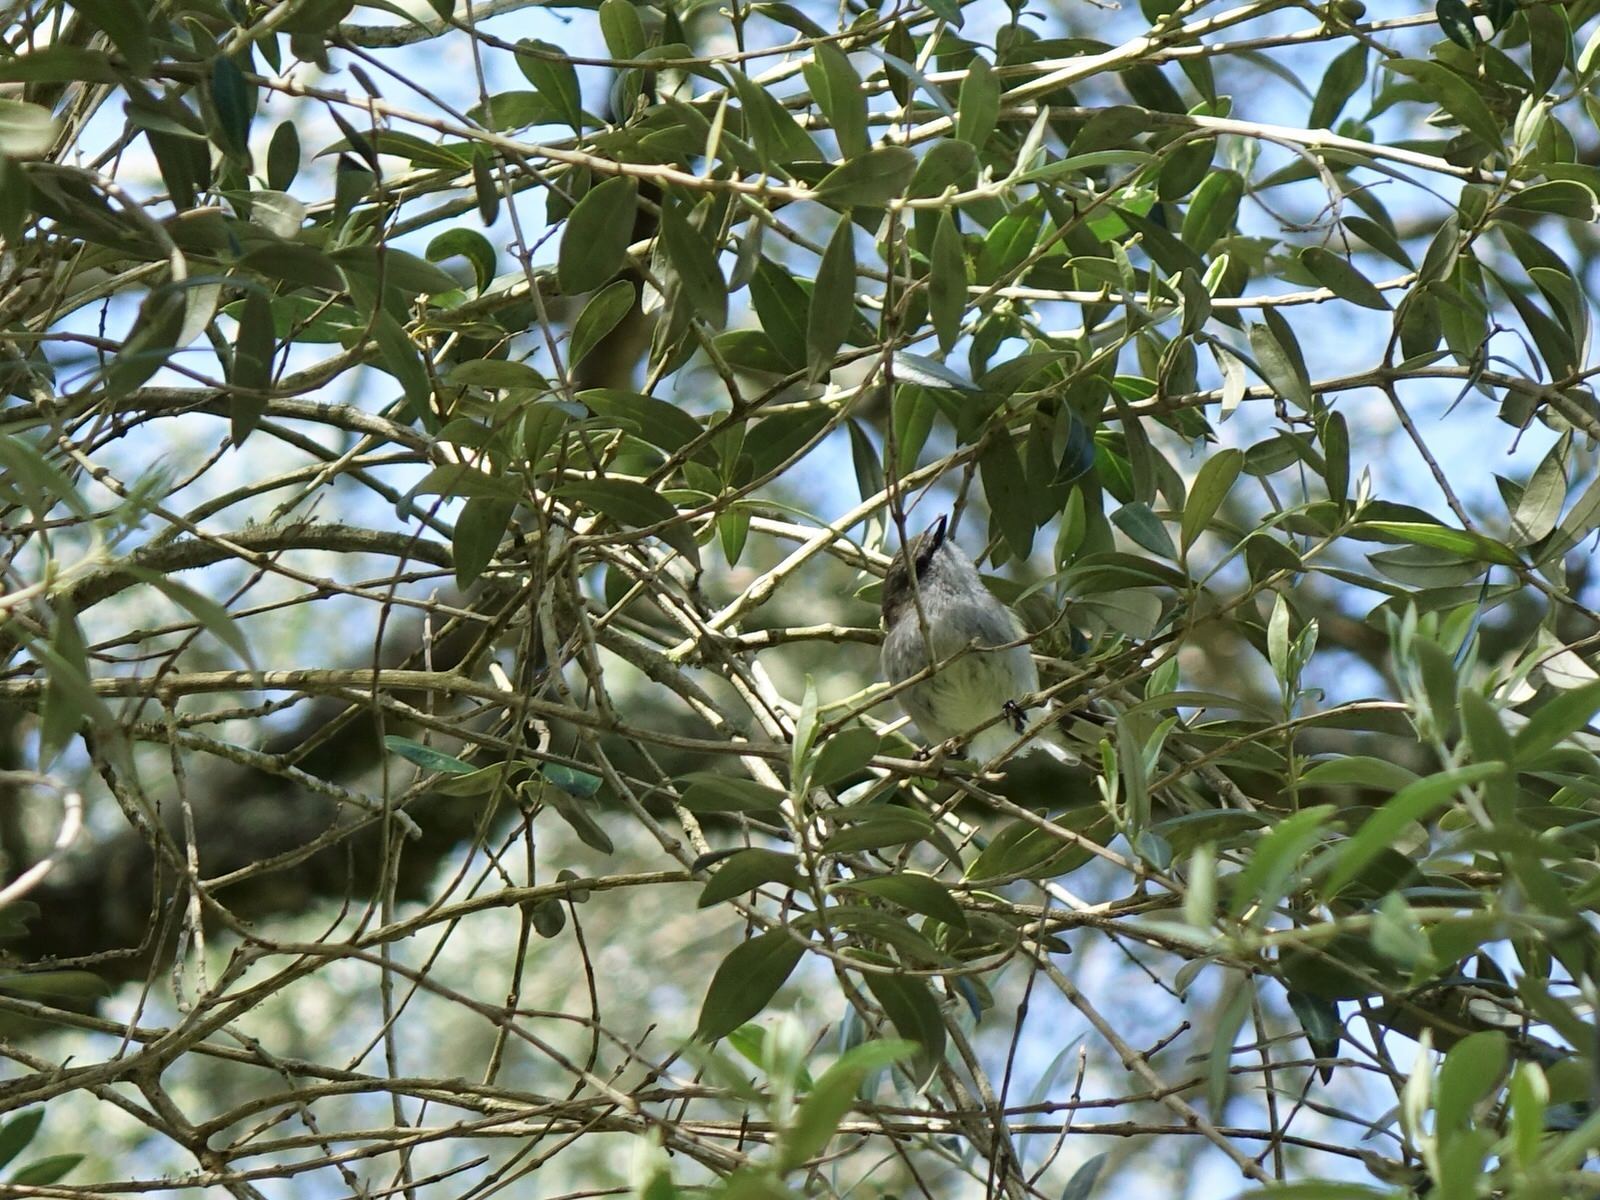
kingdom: Animalia
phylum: Chordata
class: Aves
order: Passeriformes
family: Acanthizidae
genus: Gerygone
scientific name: Gerygone igata
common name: Grey gerygone
